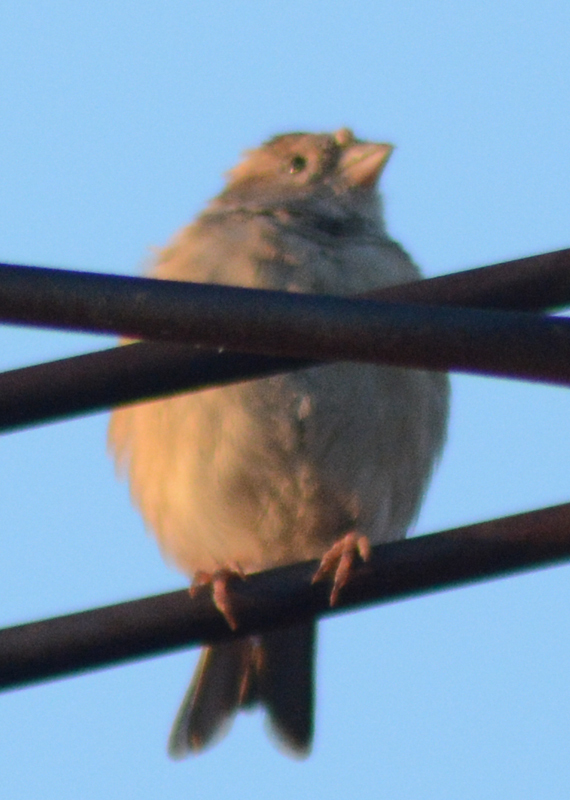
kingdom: Animalia
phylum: Chordata
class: Aves
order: Passeriformes
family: Passeridae
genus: Passer
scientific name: Passer domesticus
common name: House sparrow
